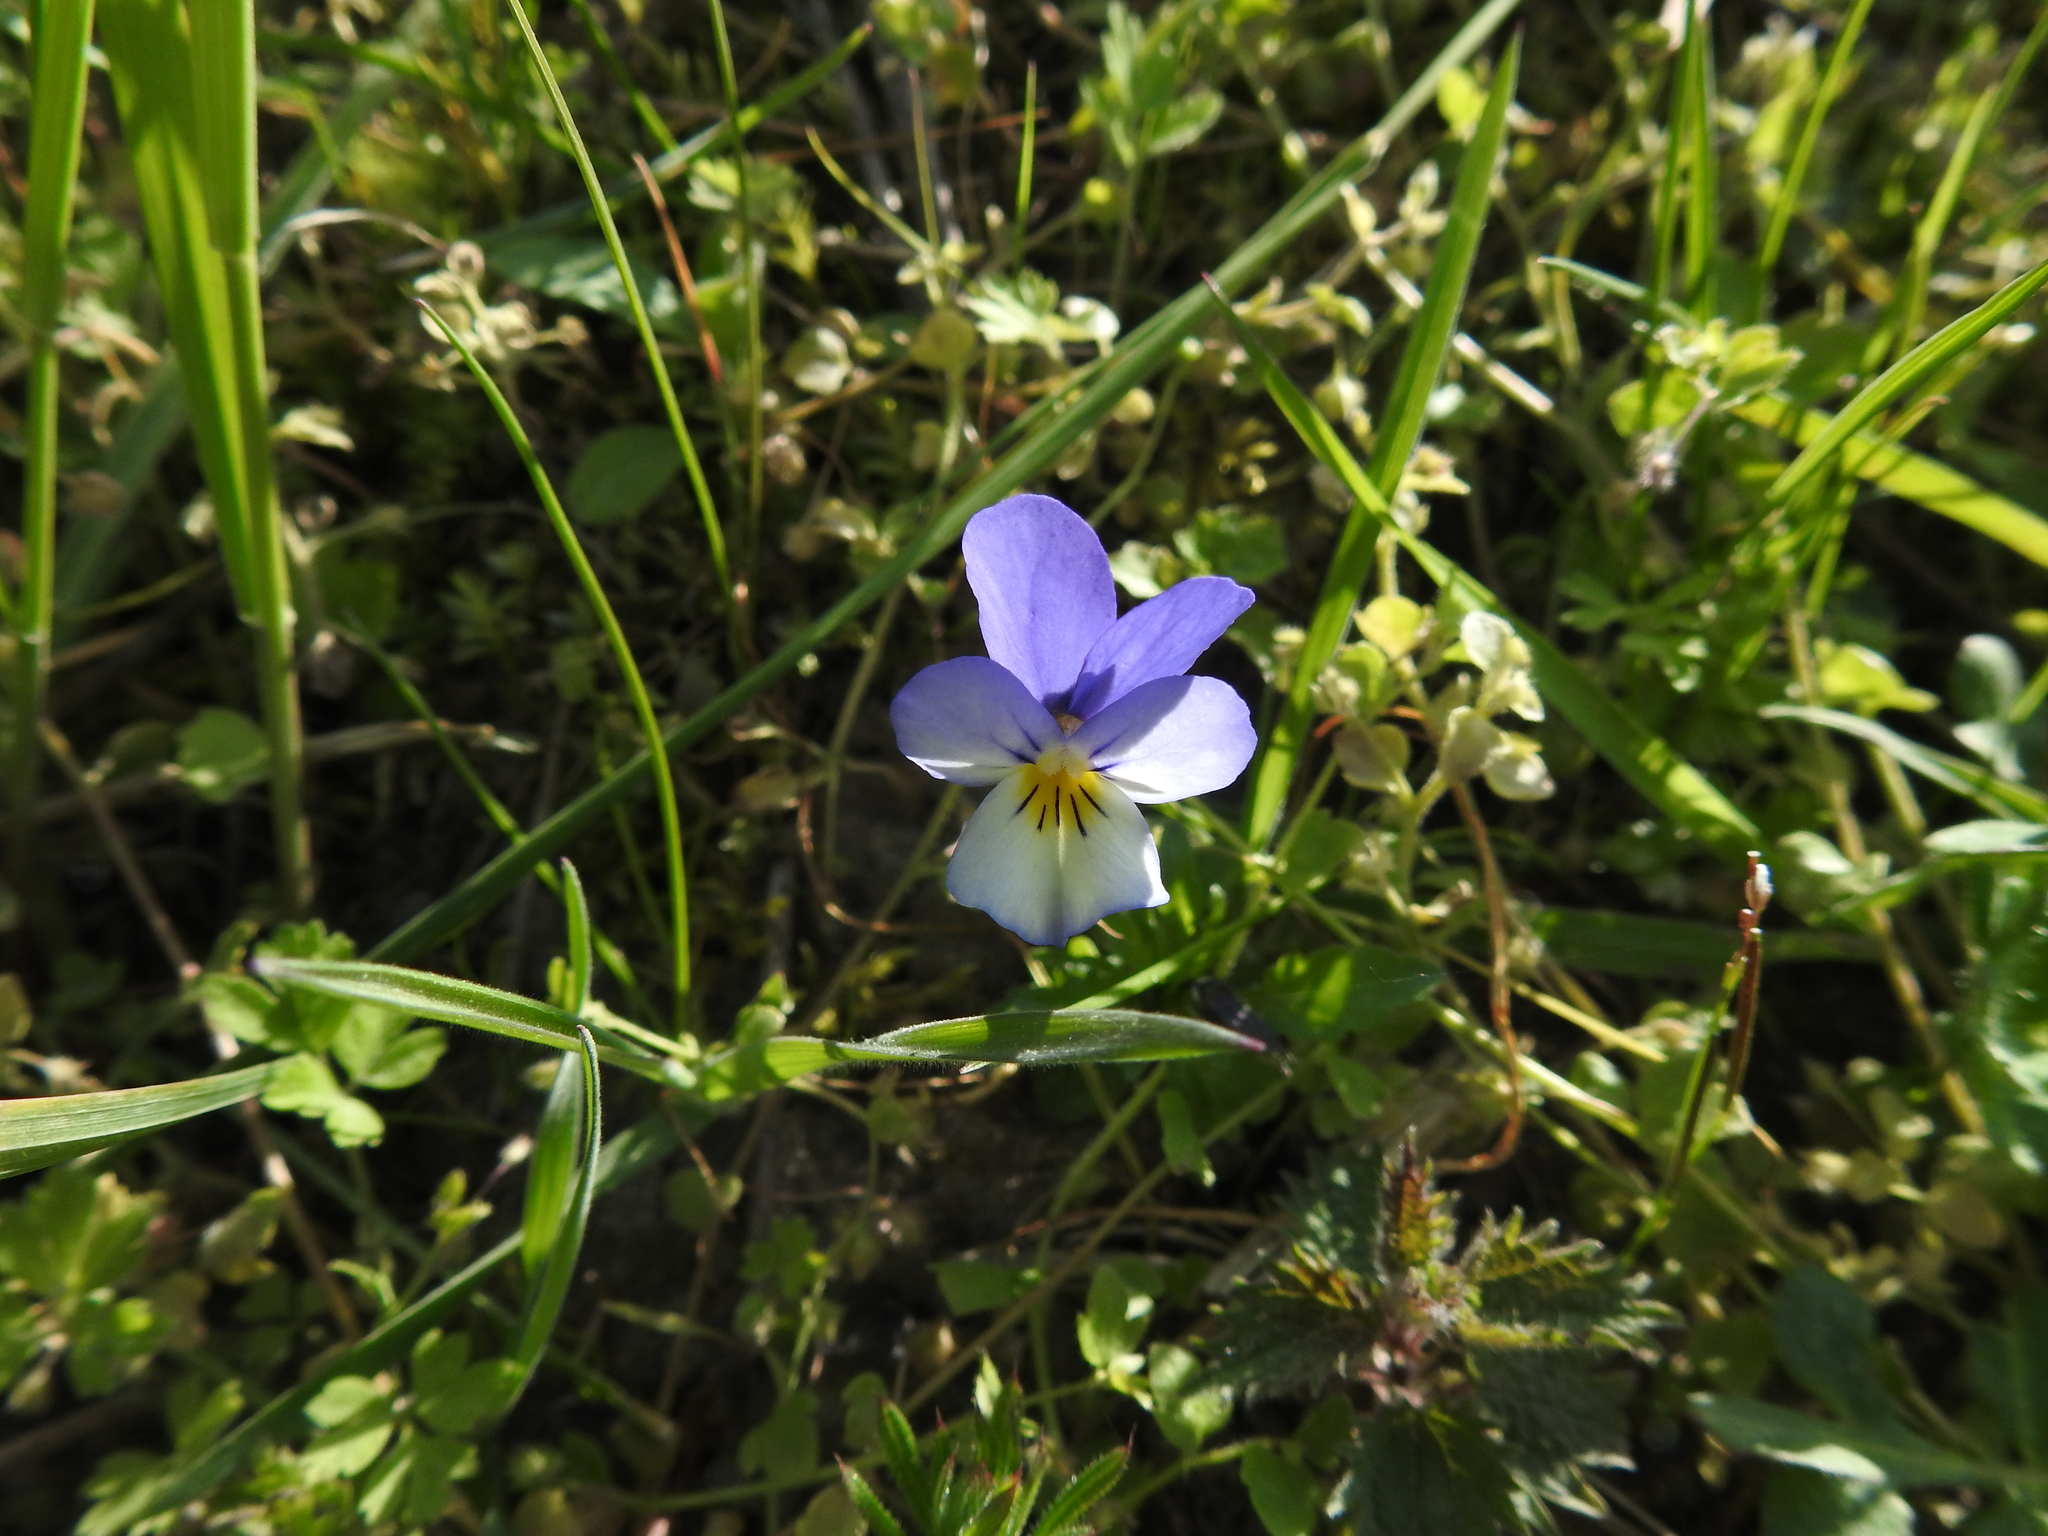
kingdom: Plantae
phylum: Tracheophyta
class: Magnoliopsida
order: Malpighiales
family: Violaceae
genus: Viola
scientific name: Viola tricolor
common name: Pansy
